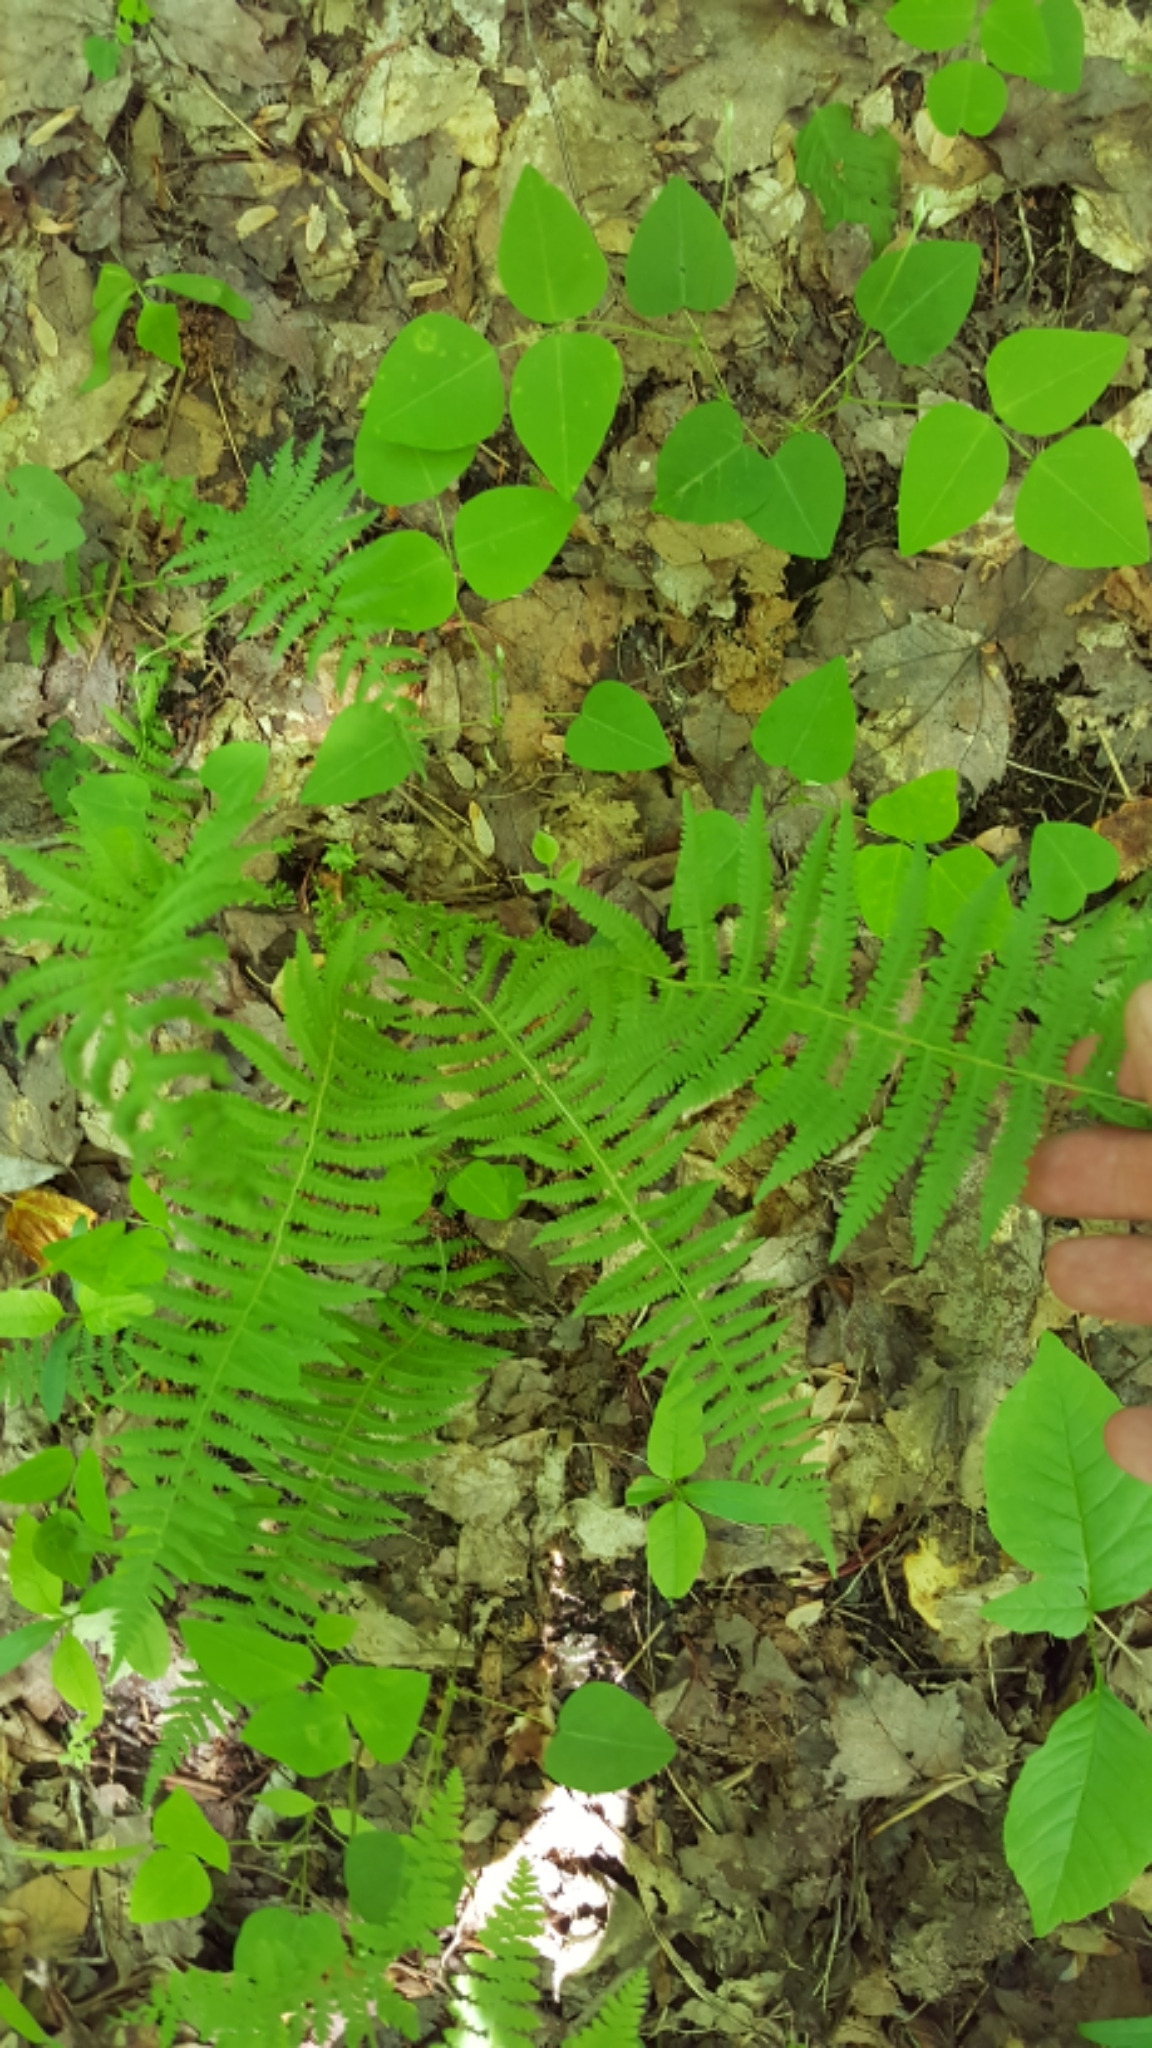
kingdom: Plantae
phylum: Tracheophyta
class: Polypodiopsida
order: Polypodiales
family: Thelypteridaceae
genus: Amauropelta
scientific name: Amauropelta noveboracensis
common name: New york fern
